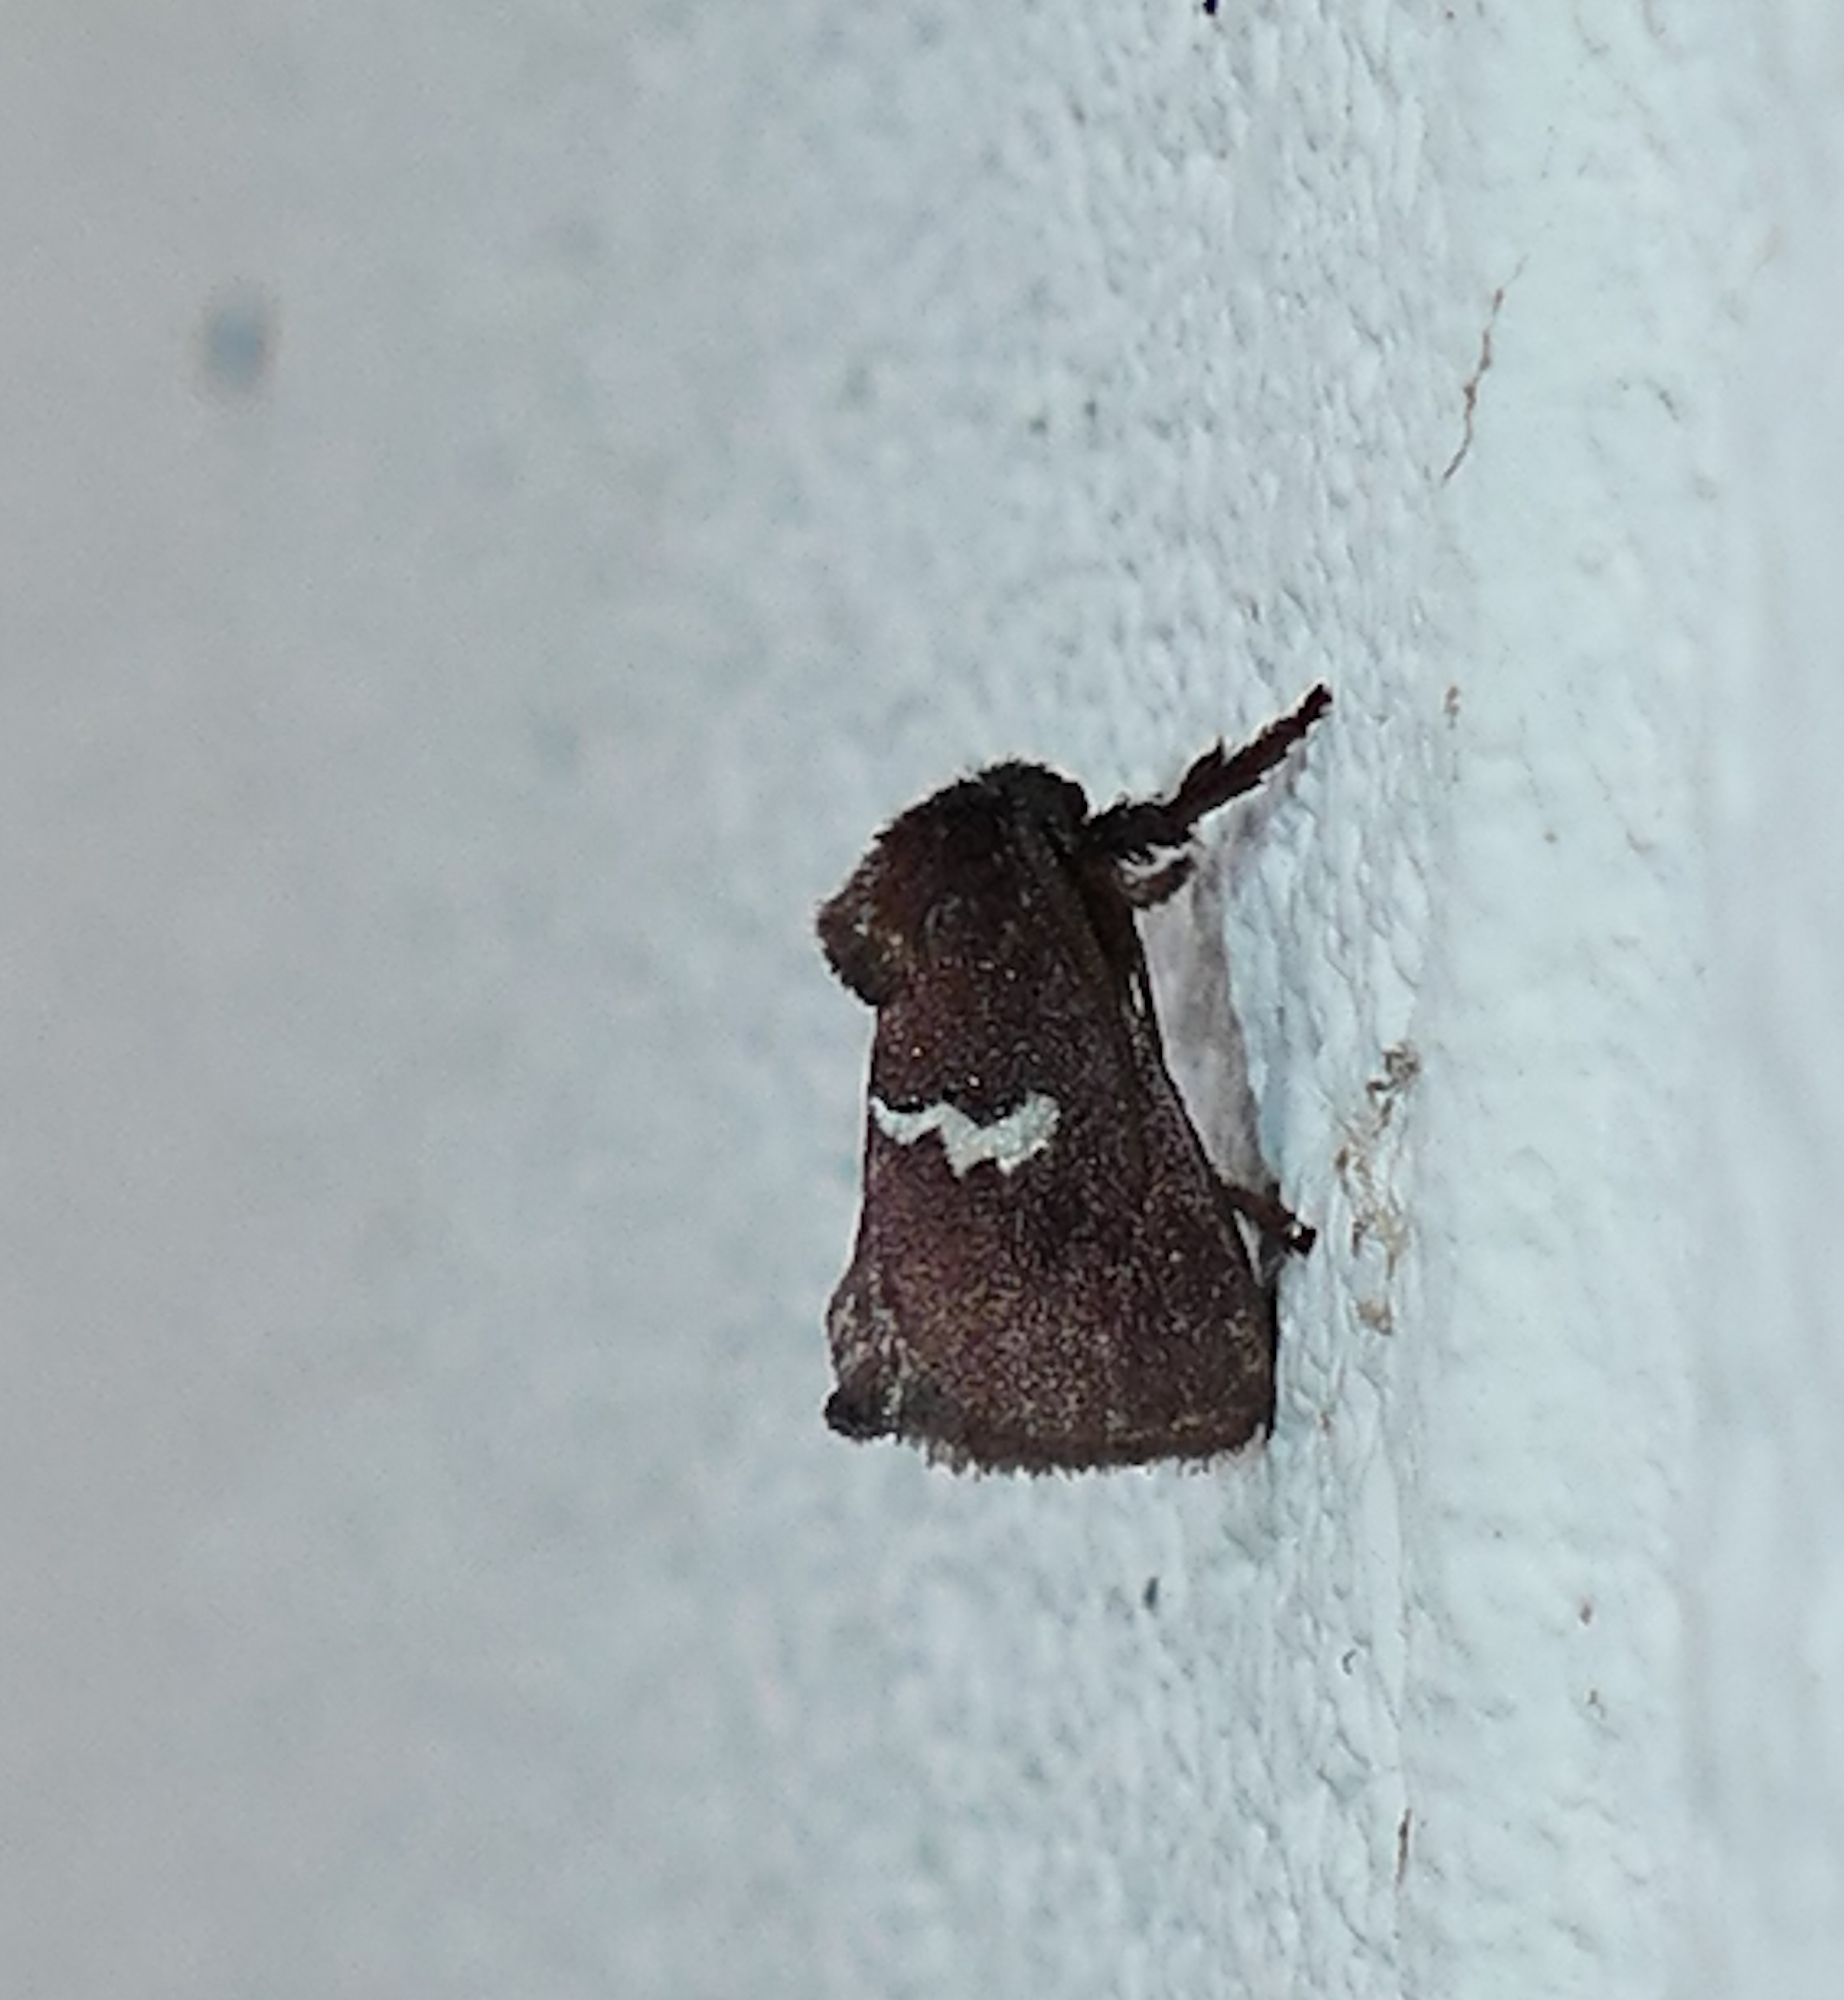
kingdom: Animalia
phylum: Arthropoda
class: Insecta
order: Lepidoptera
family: Limacodidae
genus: Monoleuca
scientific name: Monoleuca semifascia
